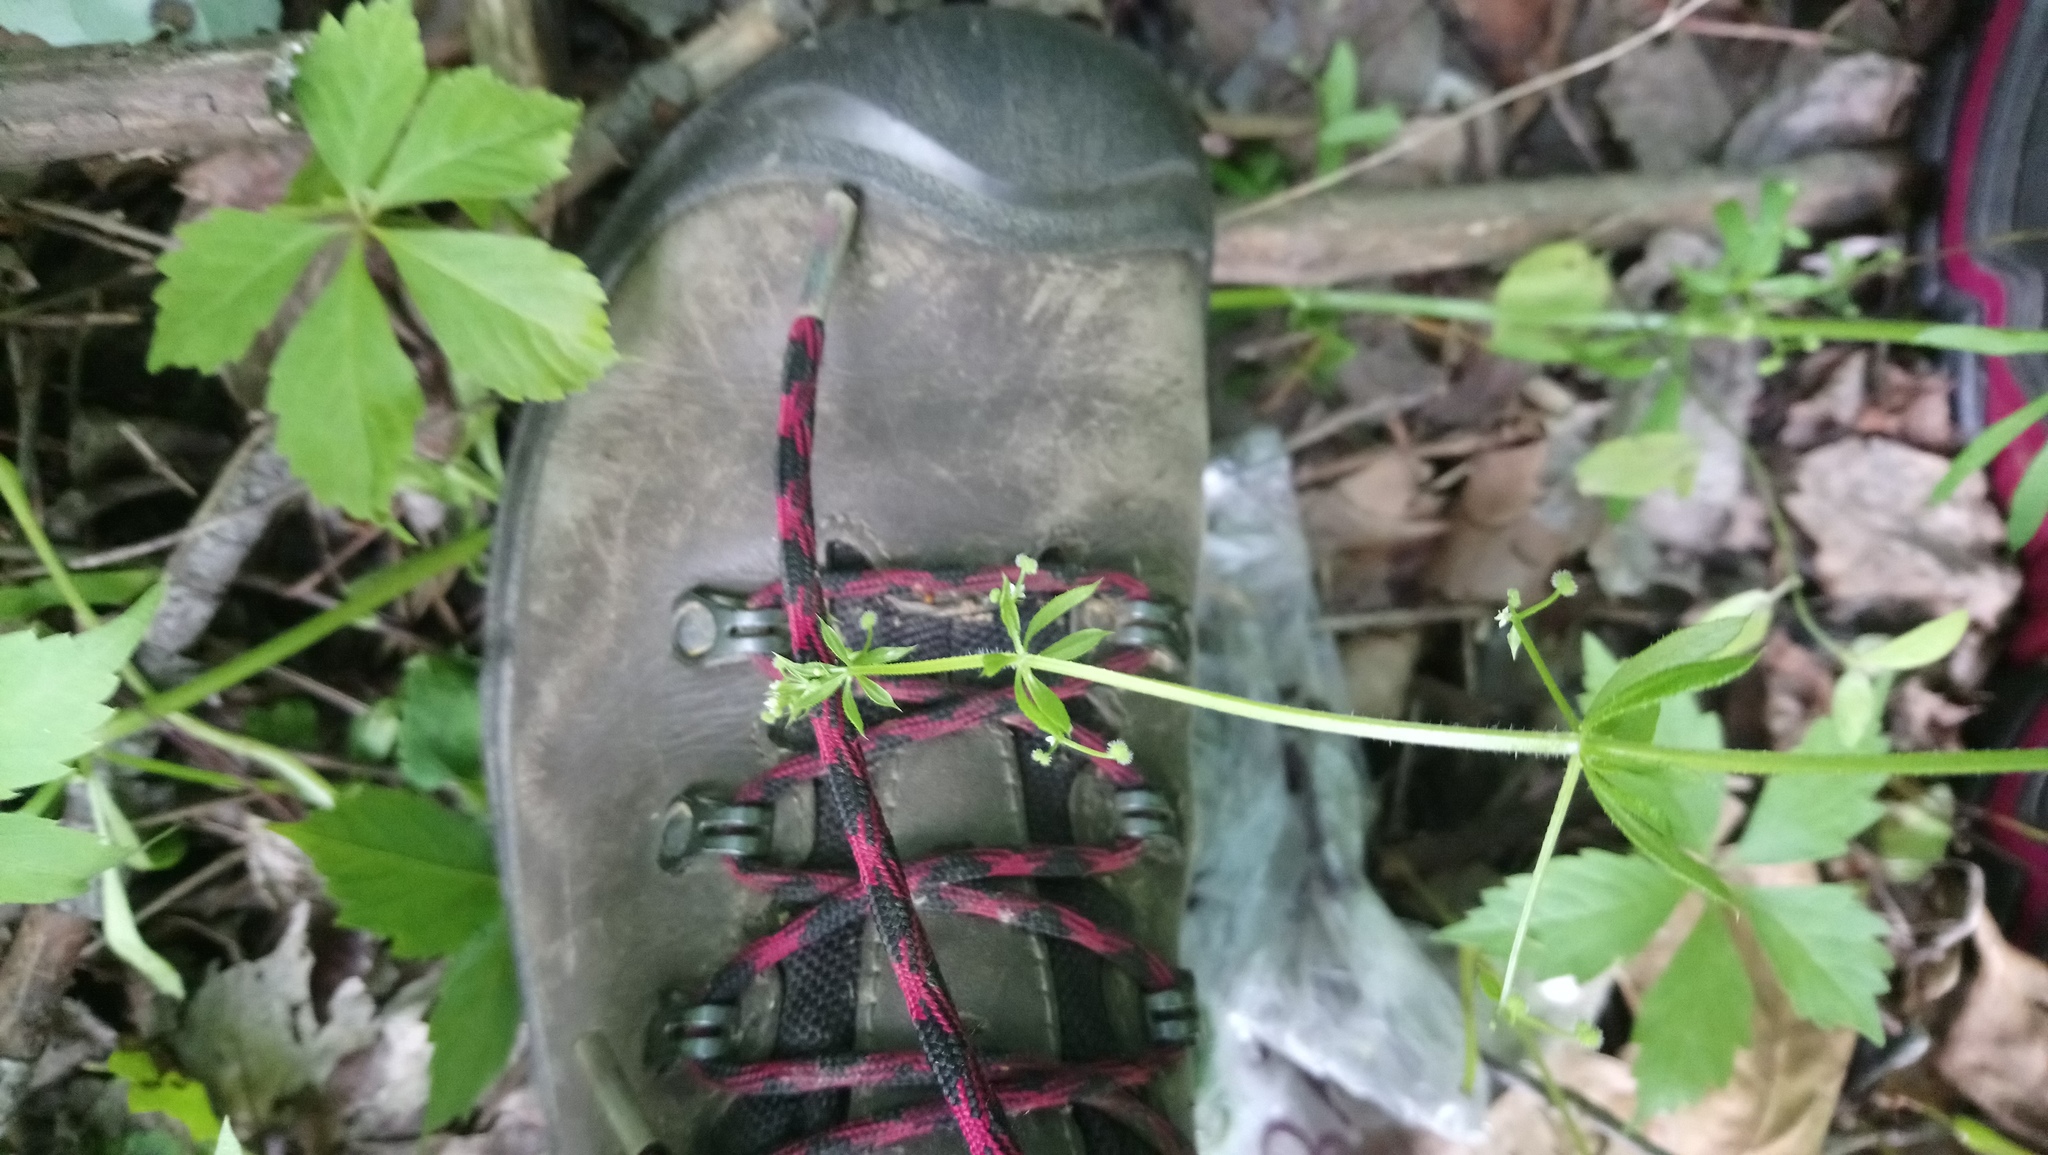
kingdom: Plantae
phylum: Tracheophyta
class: Magnoliopsida
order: Gentianales
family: Rubiaceae
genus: Galium
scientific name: Galium aparine
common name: Cleavers
